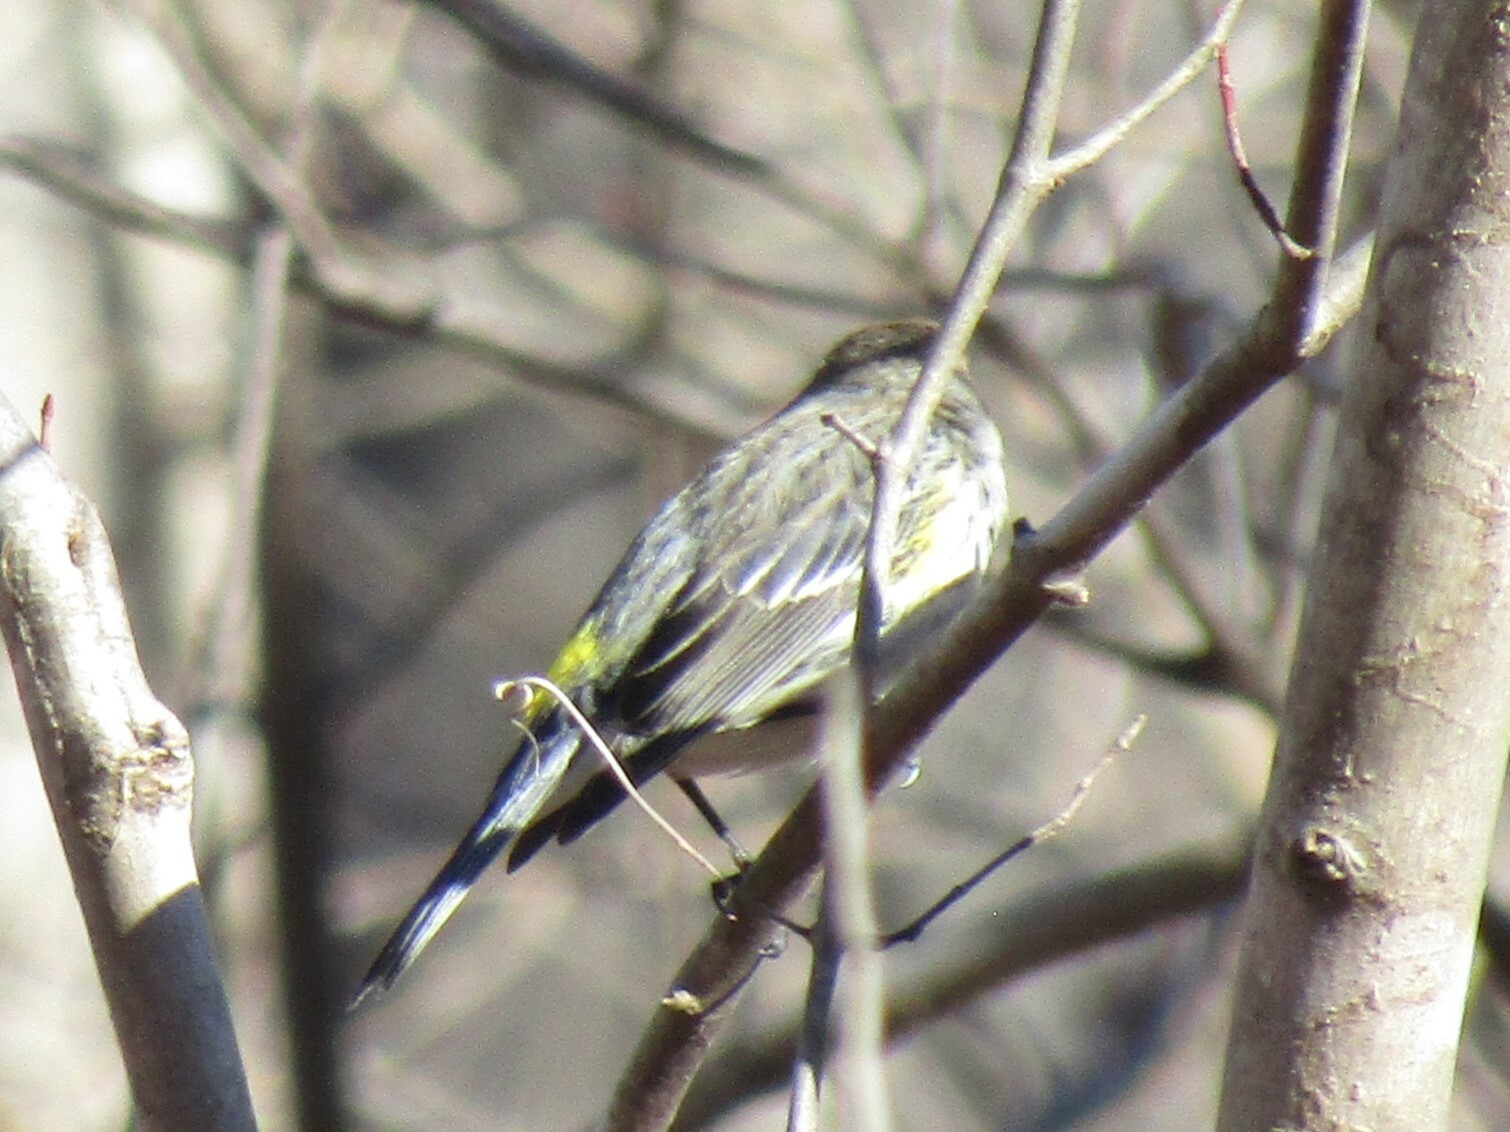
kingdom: Animalia
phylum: Chordata
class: Aves
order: Passeriformes
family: Parulidae
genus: Setophaga
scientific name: Setophaga coronata
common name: Myrtle warbler
